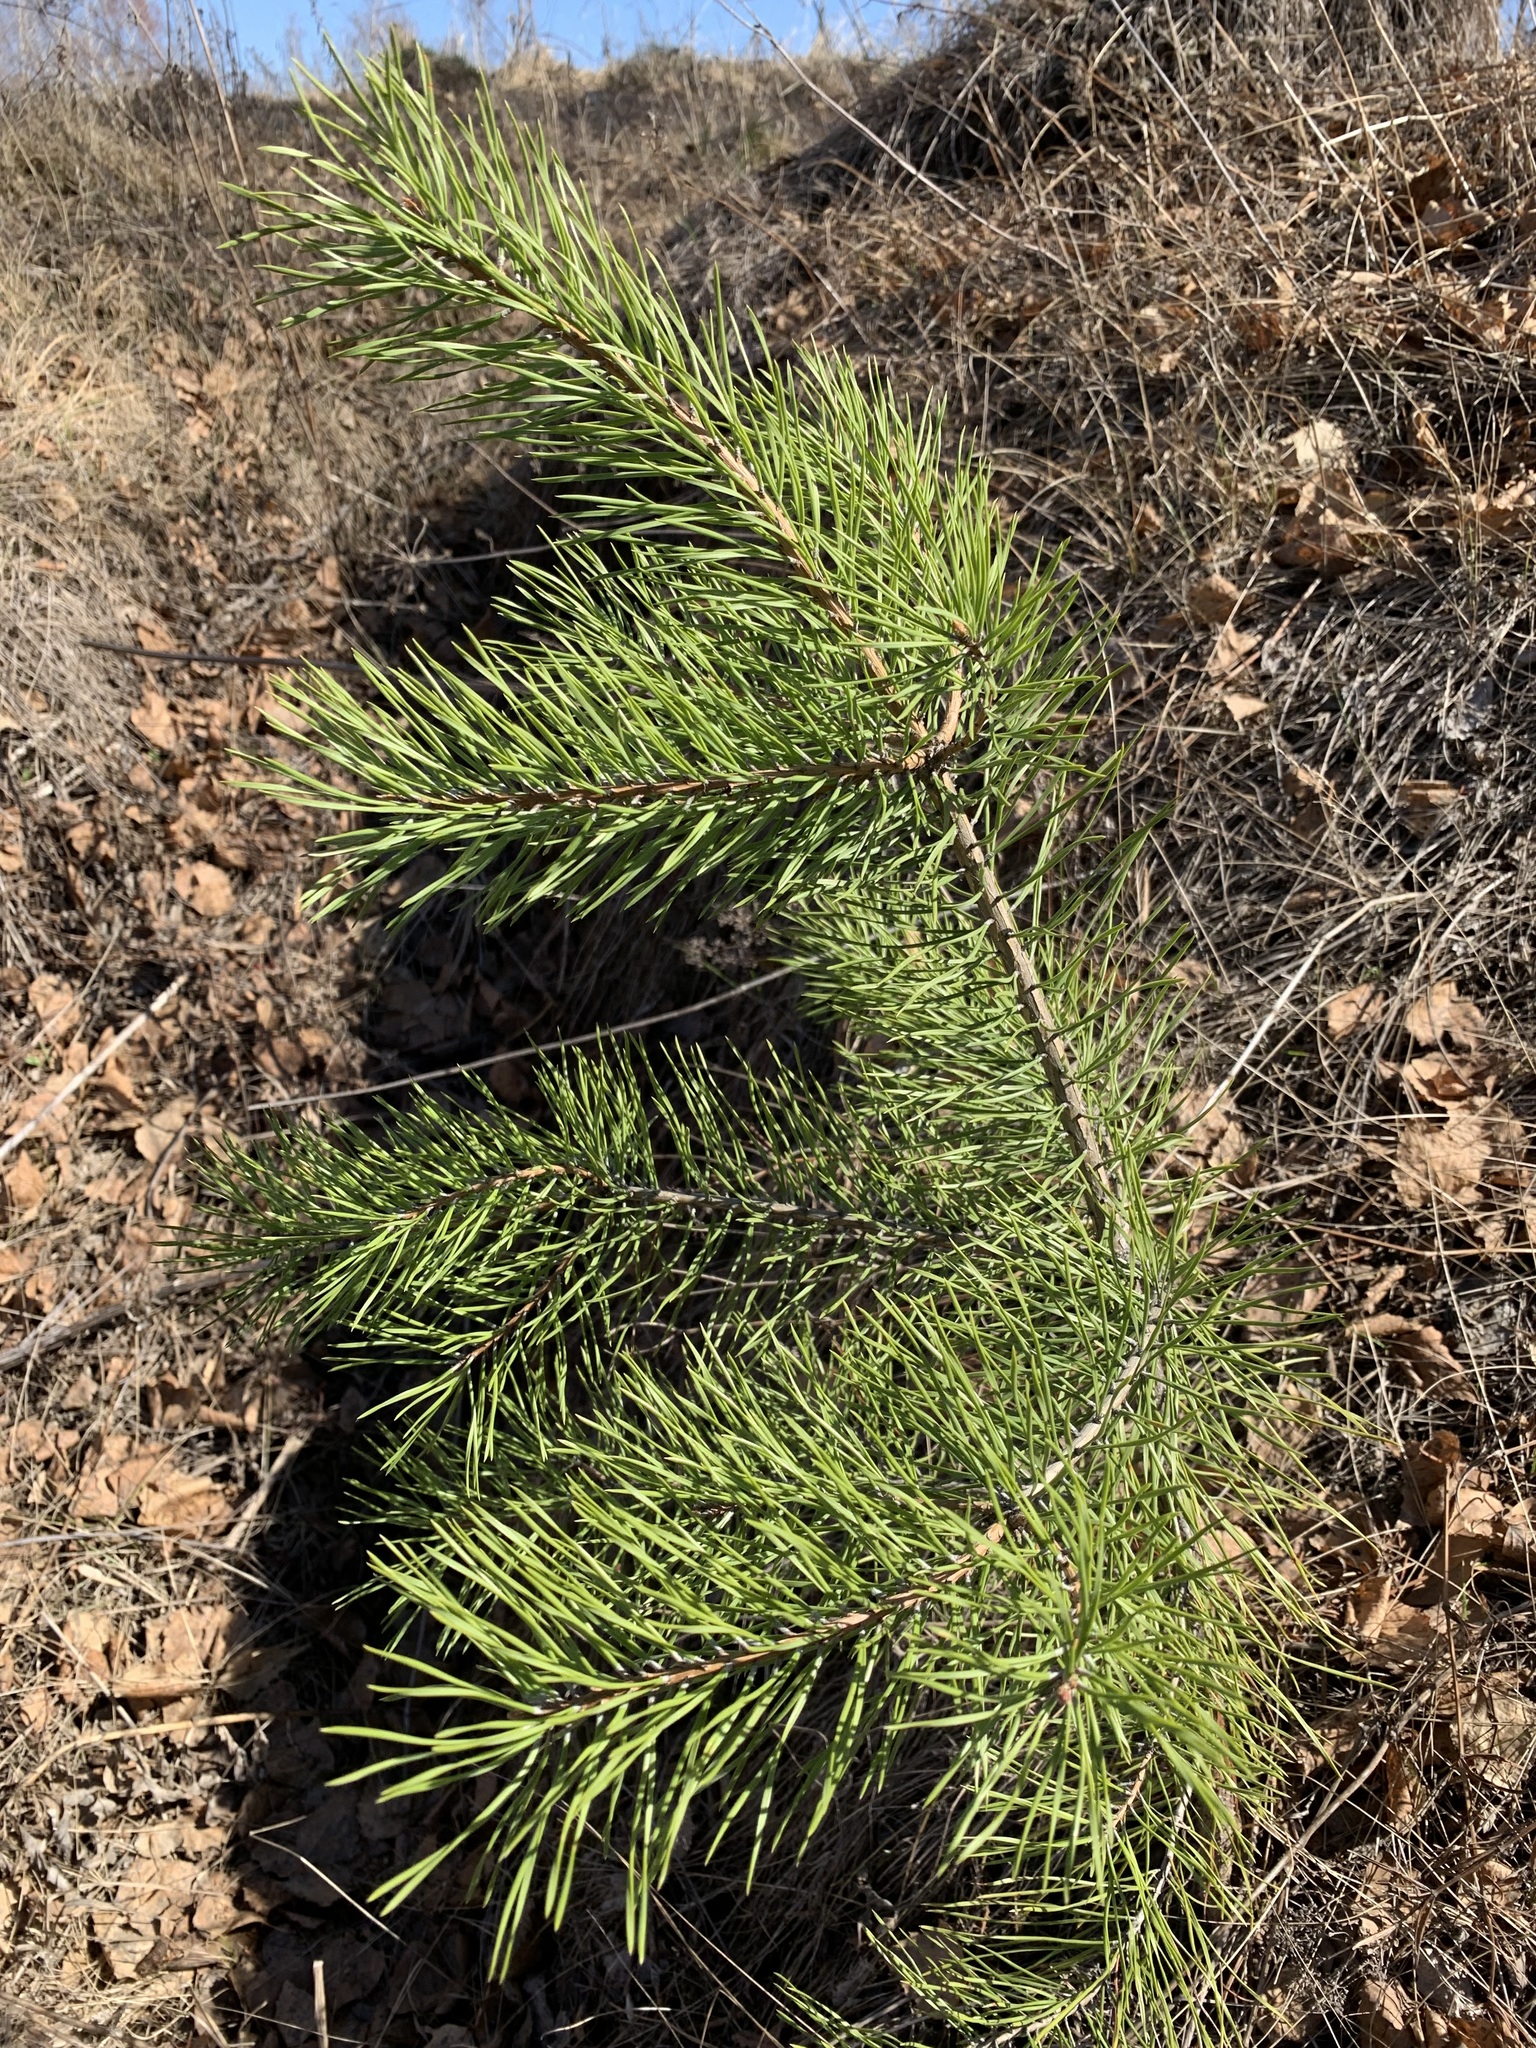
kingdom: Plantae
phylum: Tracheophyta
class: Pinopsida
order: Pinales
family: Pinaceae
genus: Pinus
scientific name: Pinus sylvestris
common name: Scots pine
